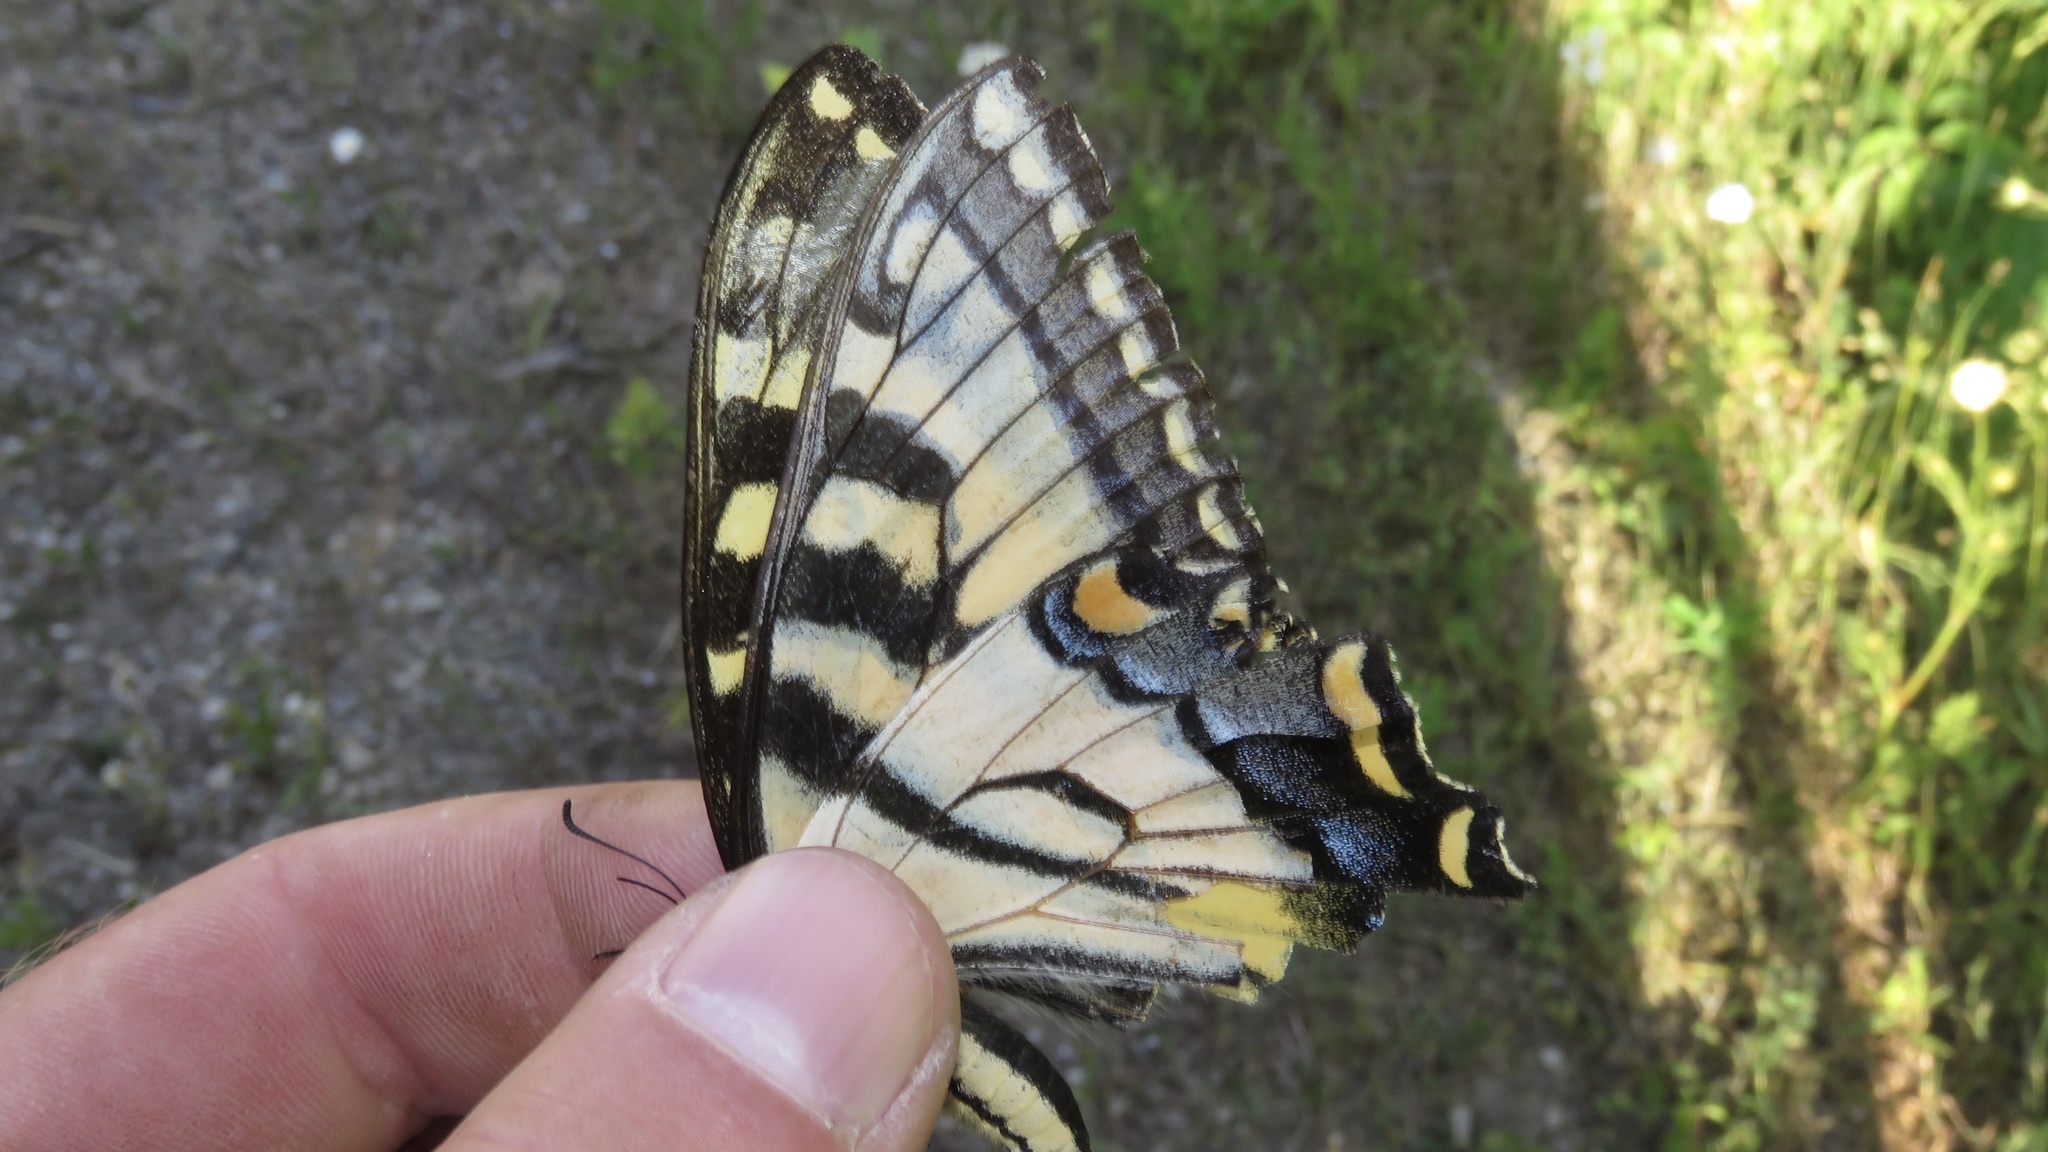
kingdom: Animalia
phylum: Arthropoda
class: Insecta
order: Lepidoptera
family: Papilionidae
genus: Papilio
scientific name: Papilio
